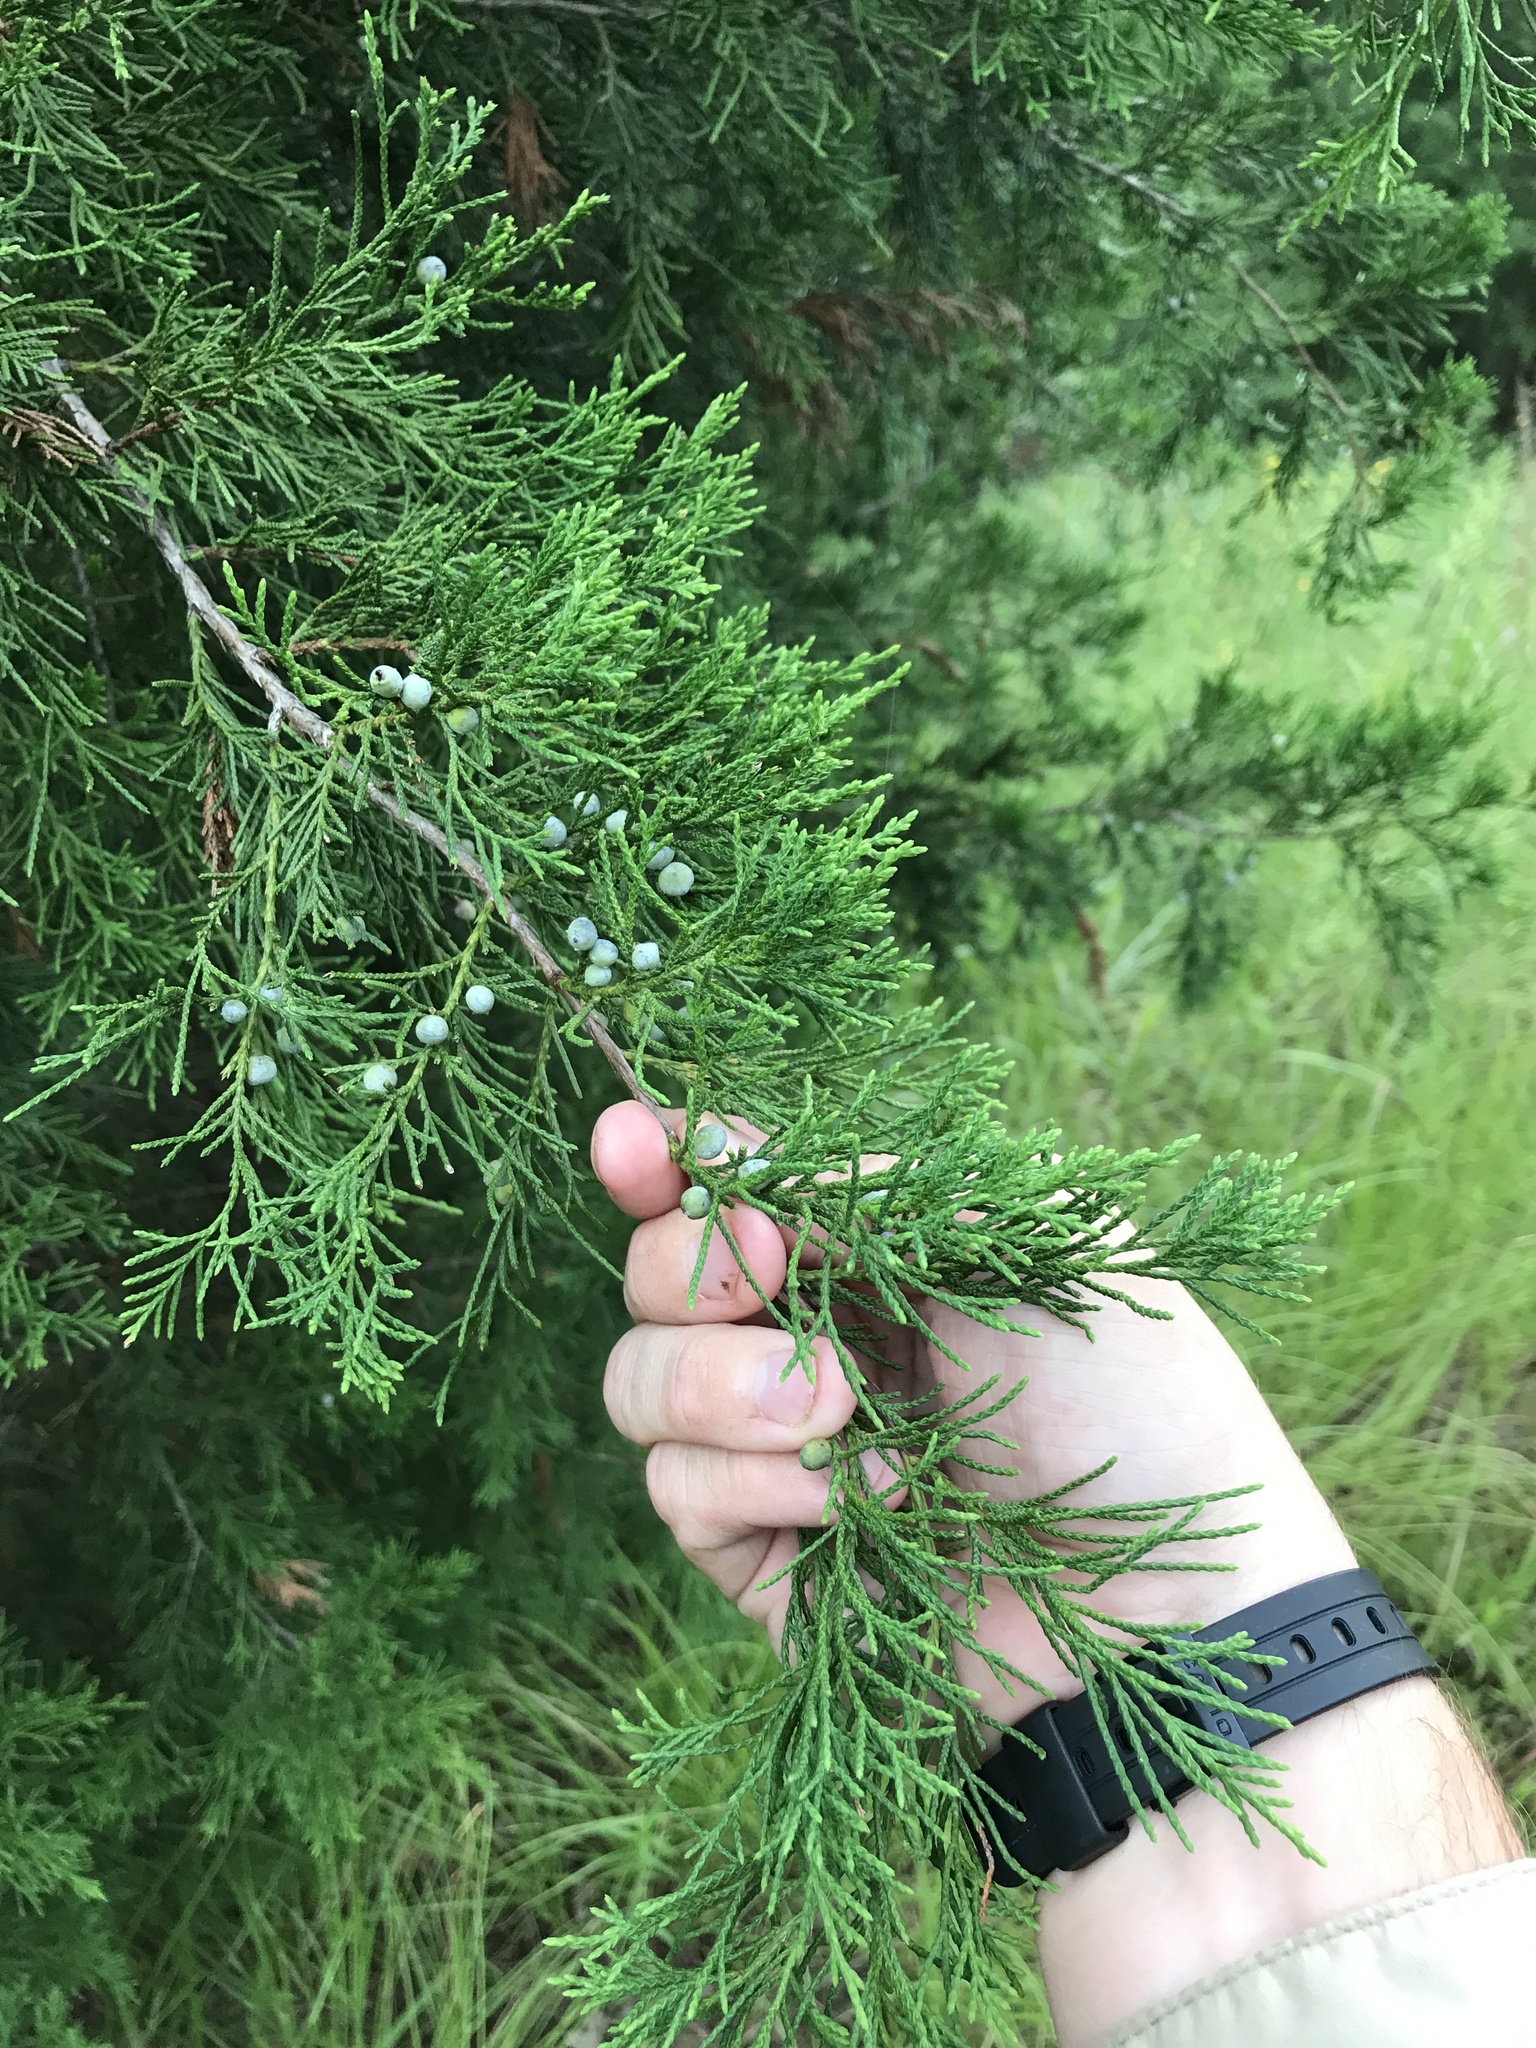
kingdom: Plantae
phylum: Tracheophyta
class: Pinopsida
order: Pinales
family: Cupressaceae
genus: Juniperus
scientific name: Juniperus virginiana
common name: Red juniper
